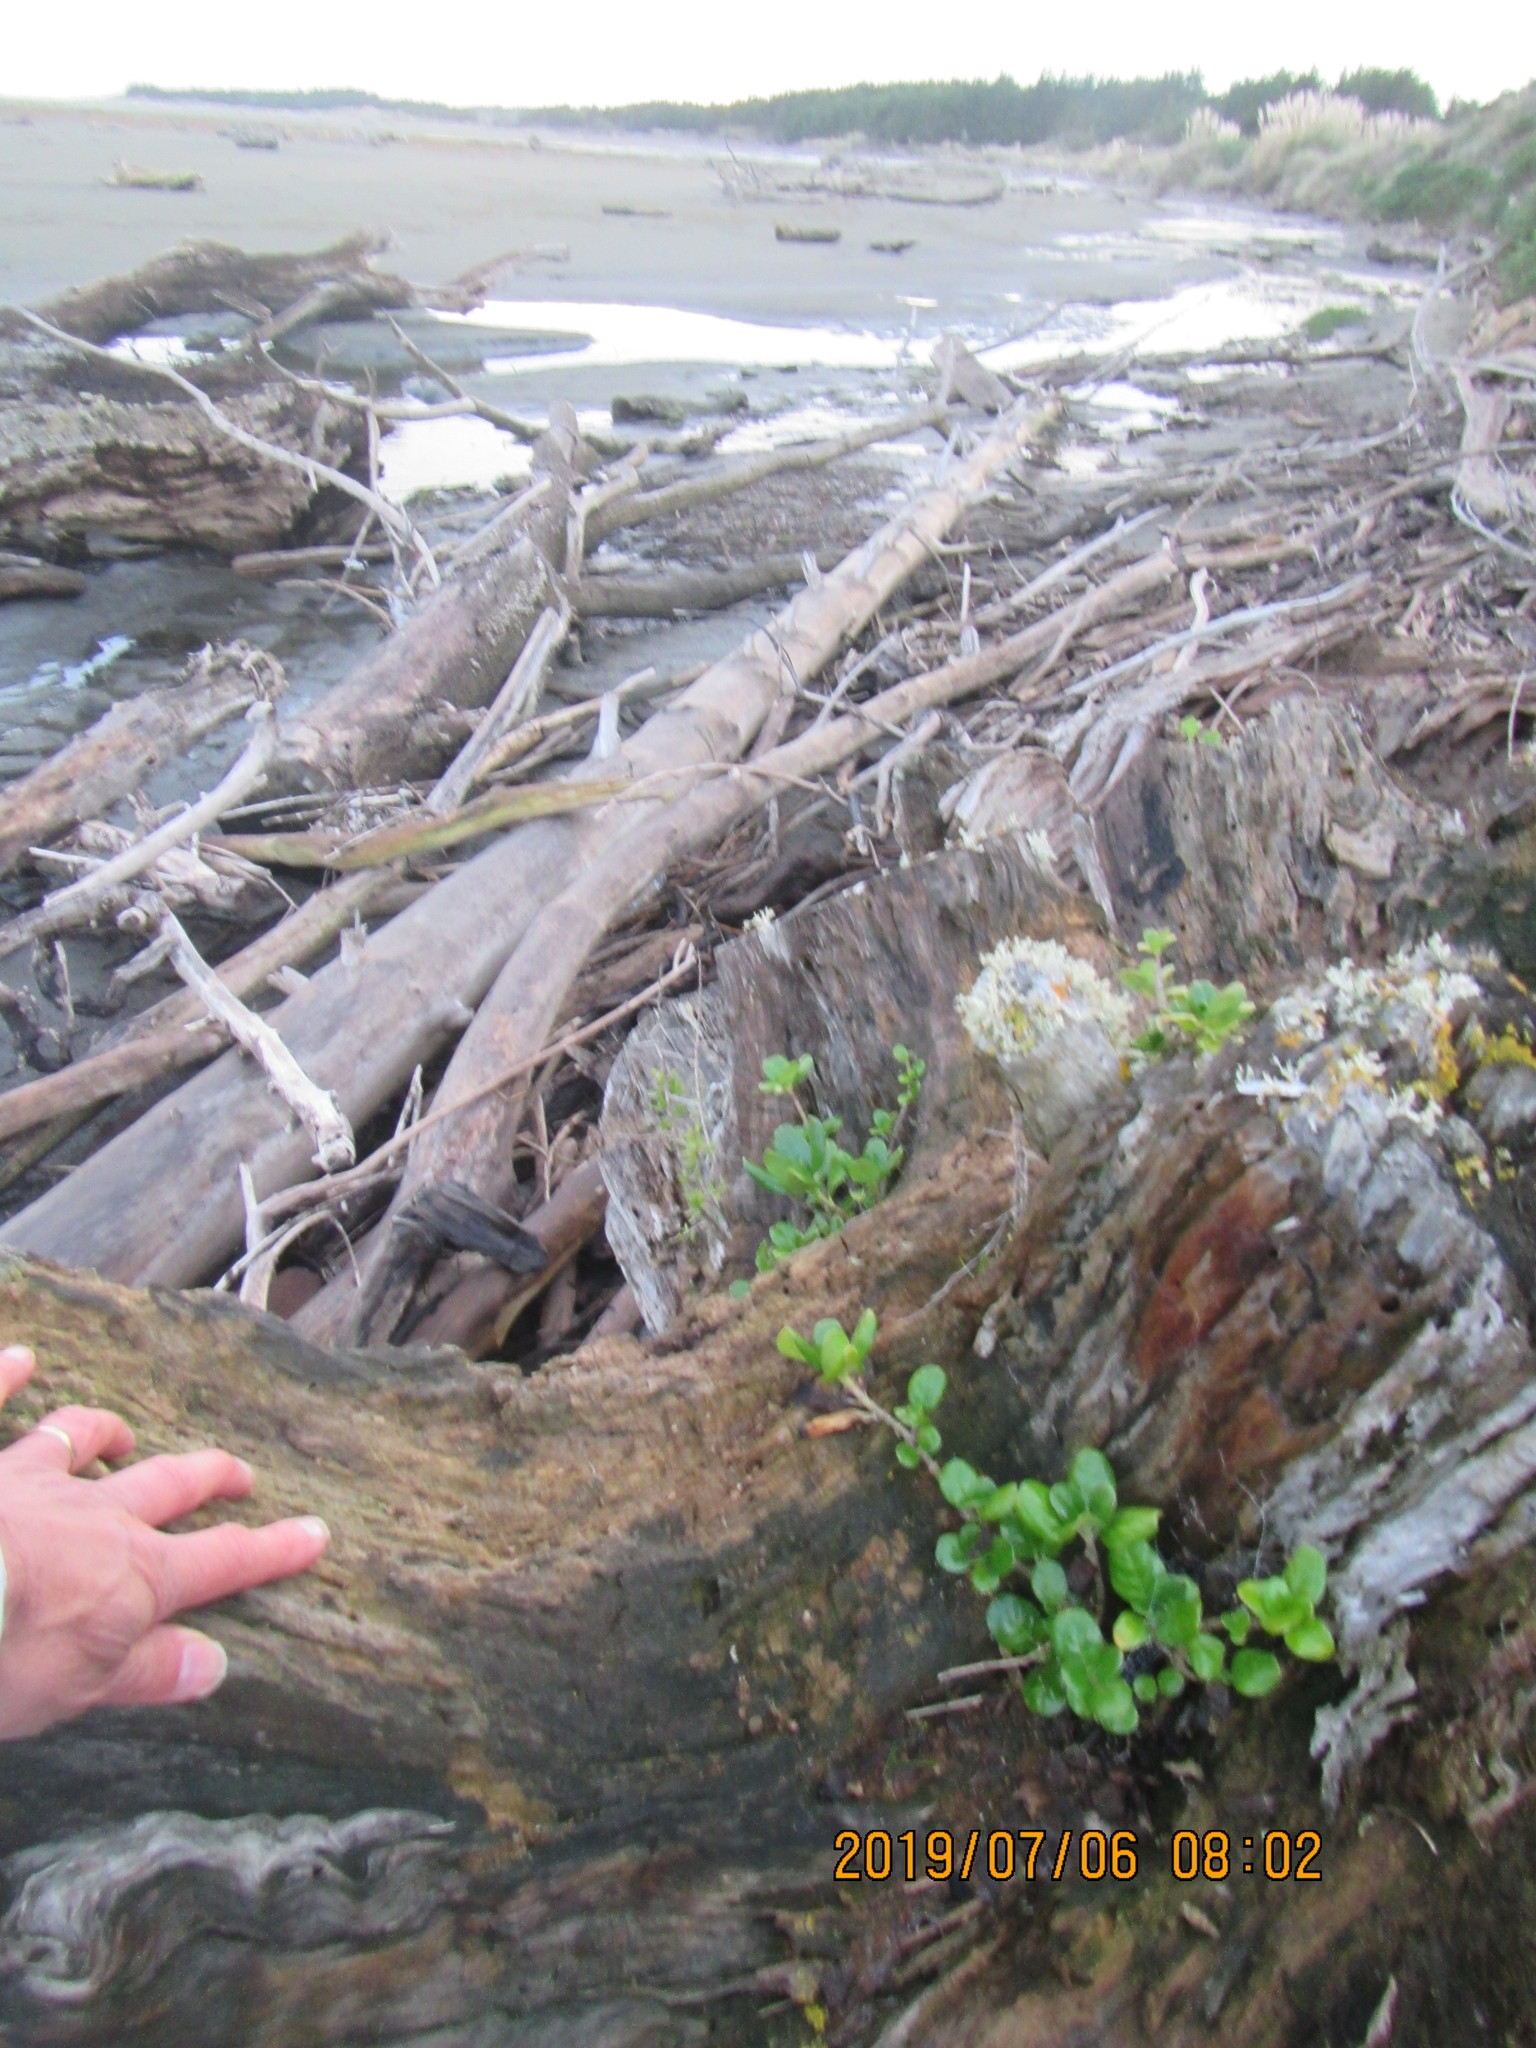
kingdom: Plantae
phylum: Tracheophyta
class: Magnoliopsida
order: Gentianales
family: Rubiaceae
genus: Coprosma
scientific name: Coprosma repens
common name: Tree bedstraw
